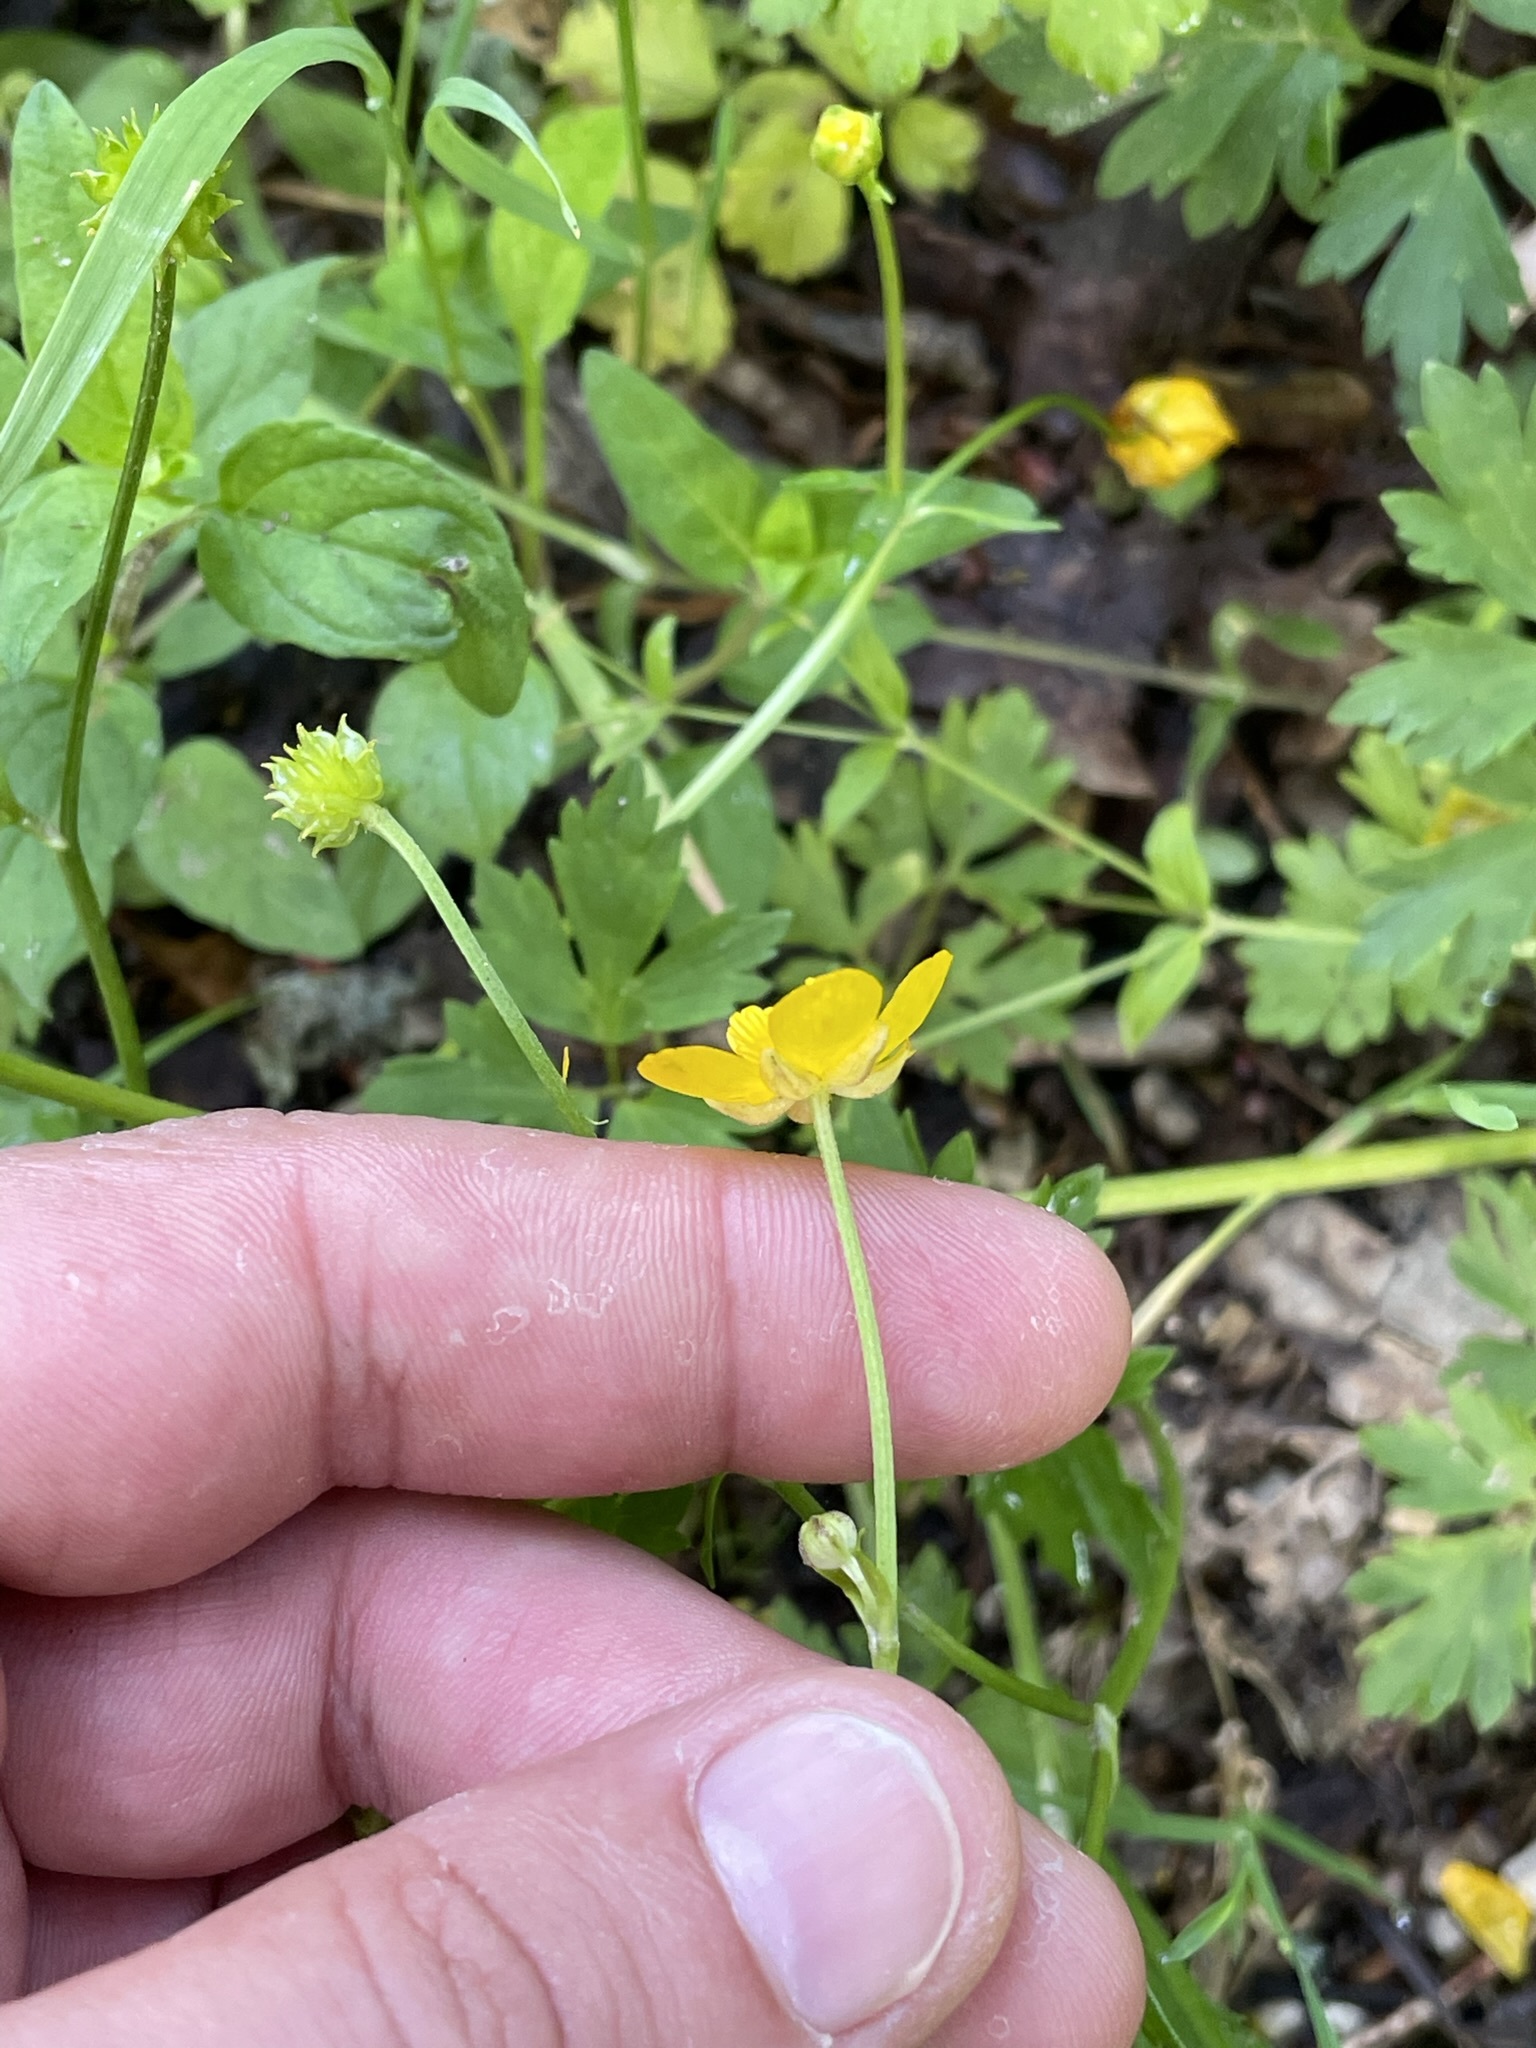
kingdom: Plantae
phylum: Tracheophyta
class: Magnoliopsida
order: Ranunculales
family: Ranunculaceae
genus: Ranunculus
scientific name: Ranunculus repens
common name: Creeping buttercup
